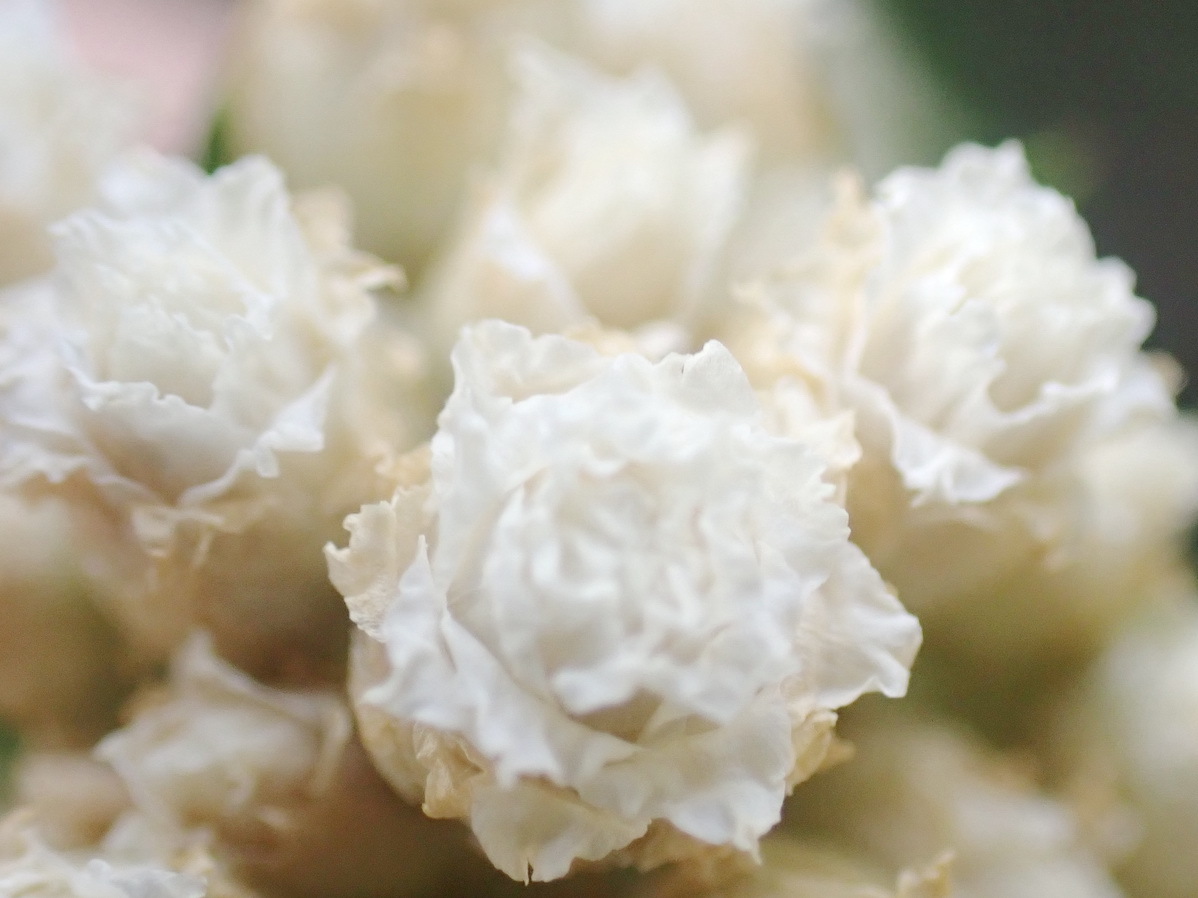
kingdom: Plantae
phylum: Tracheophyta
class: Magnoliopsida
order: Asterales
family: Asteraceae
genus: Helichrysum
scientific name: Helichrysum teretifolium
